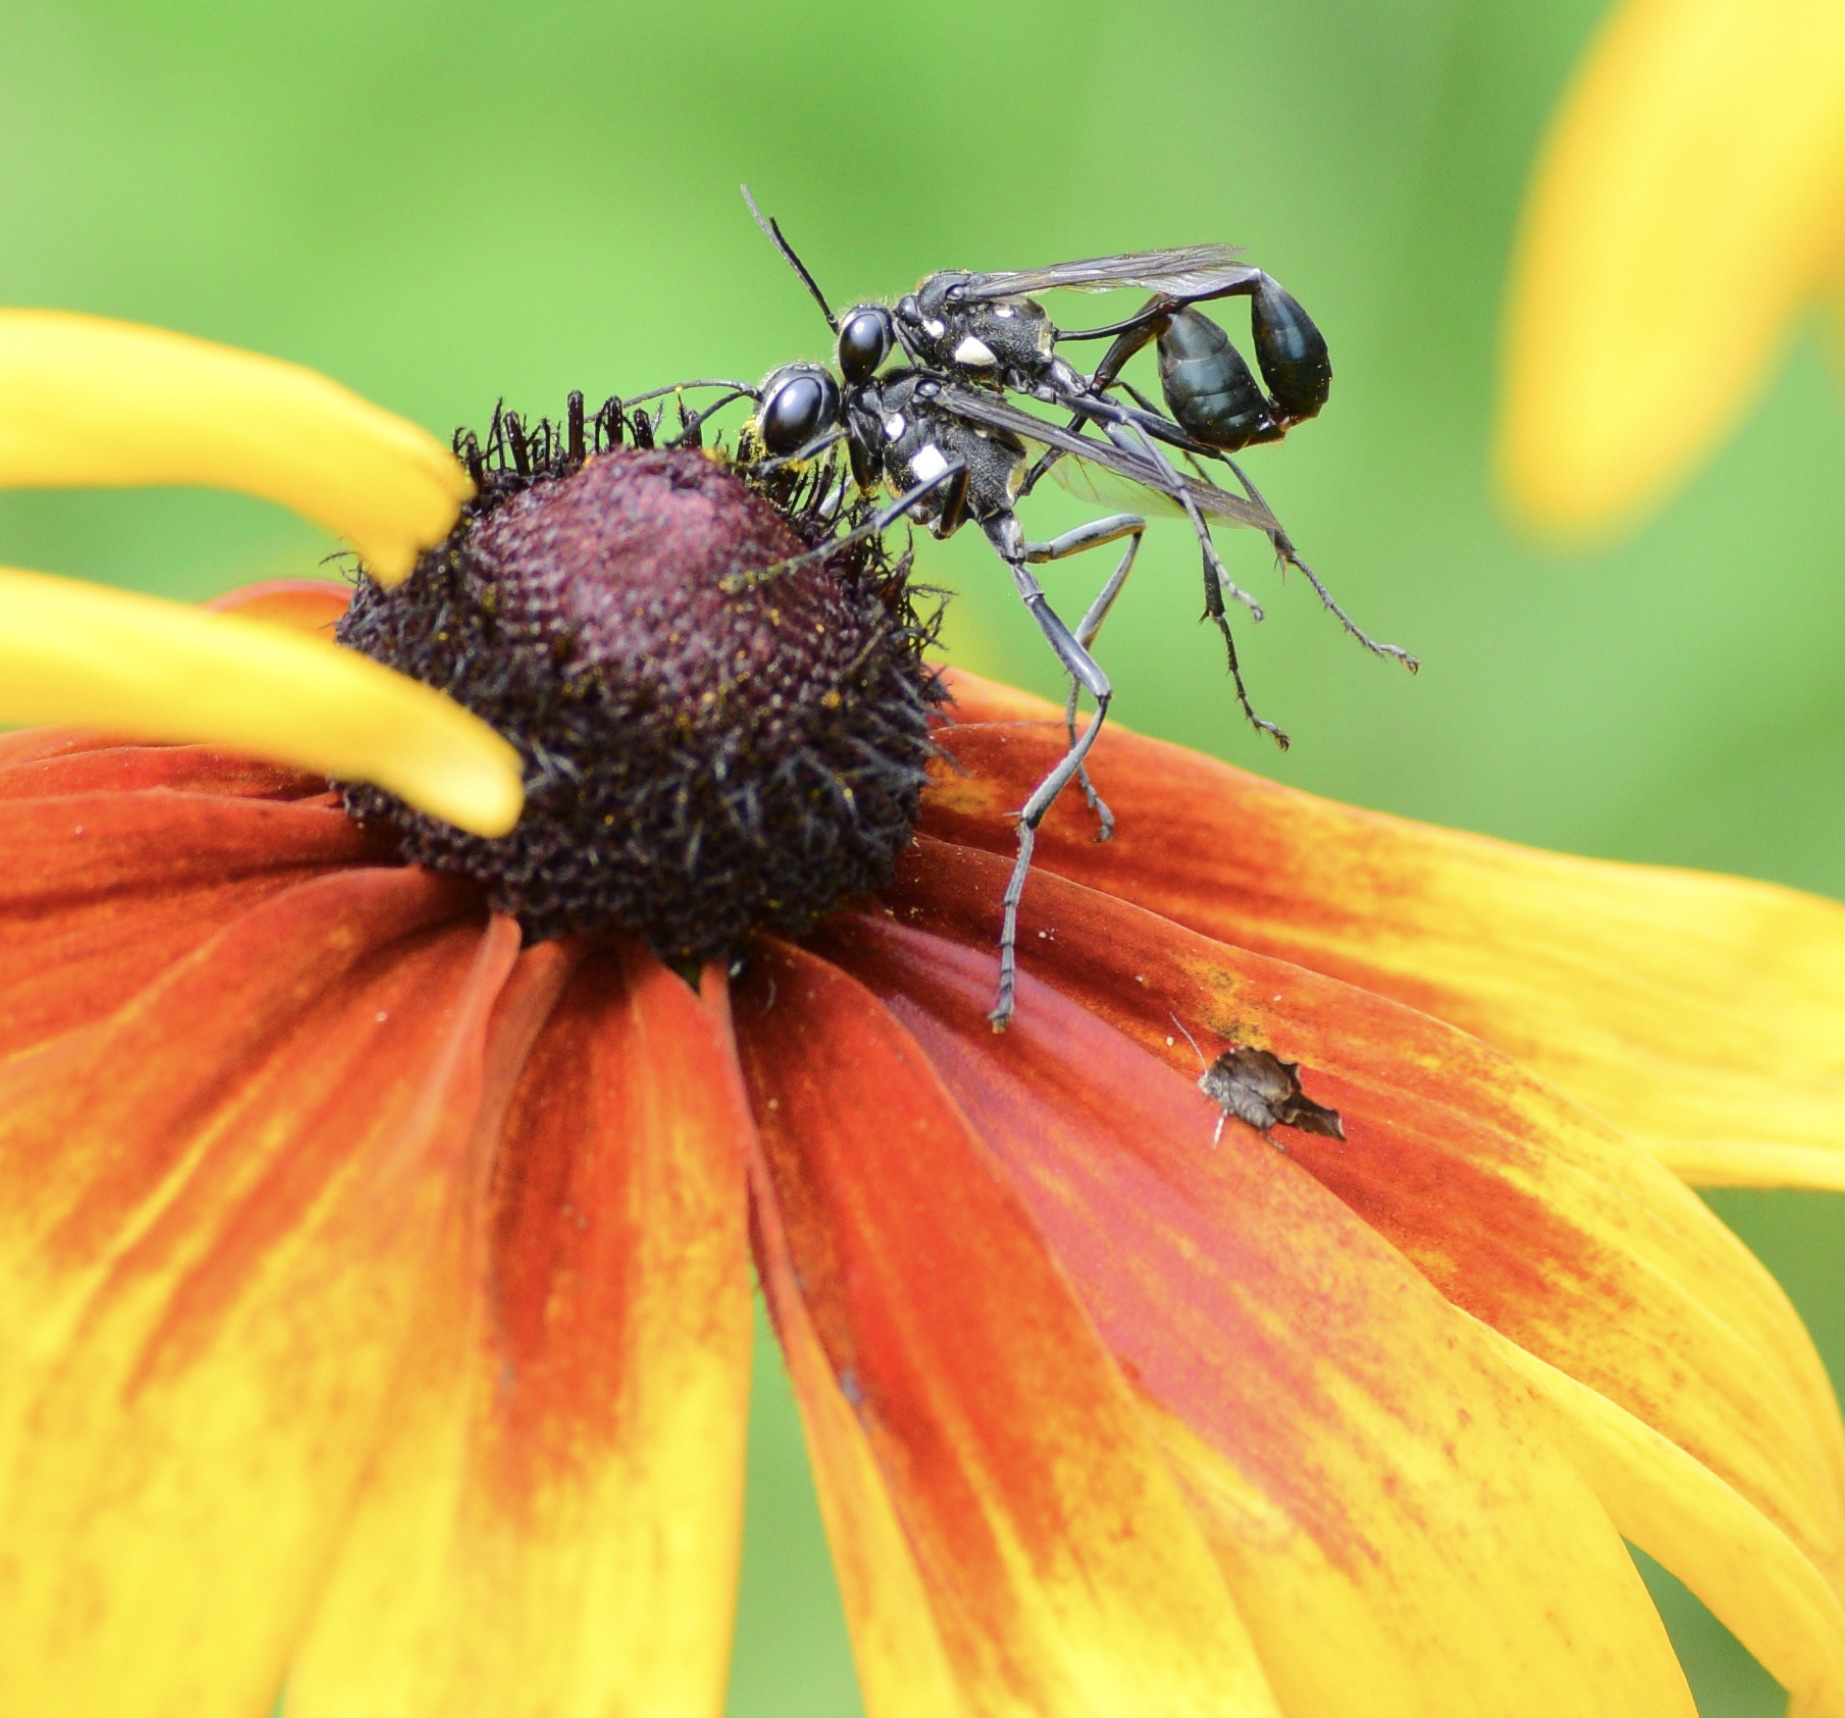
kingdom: Animalia
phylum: Arthropoda
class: Insecta
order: Hymenoptera
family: Sphecidae
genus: Eremnophila
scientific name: Eremnophila aureonotata
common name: Gold-marked thread-waisted wasp
